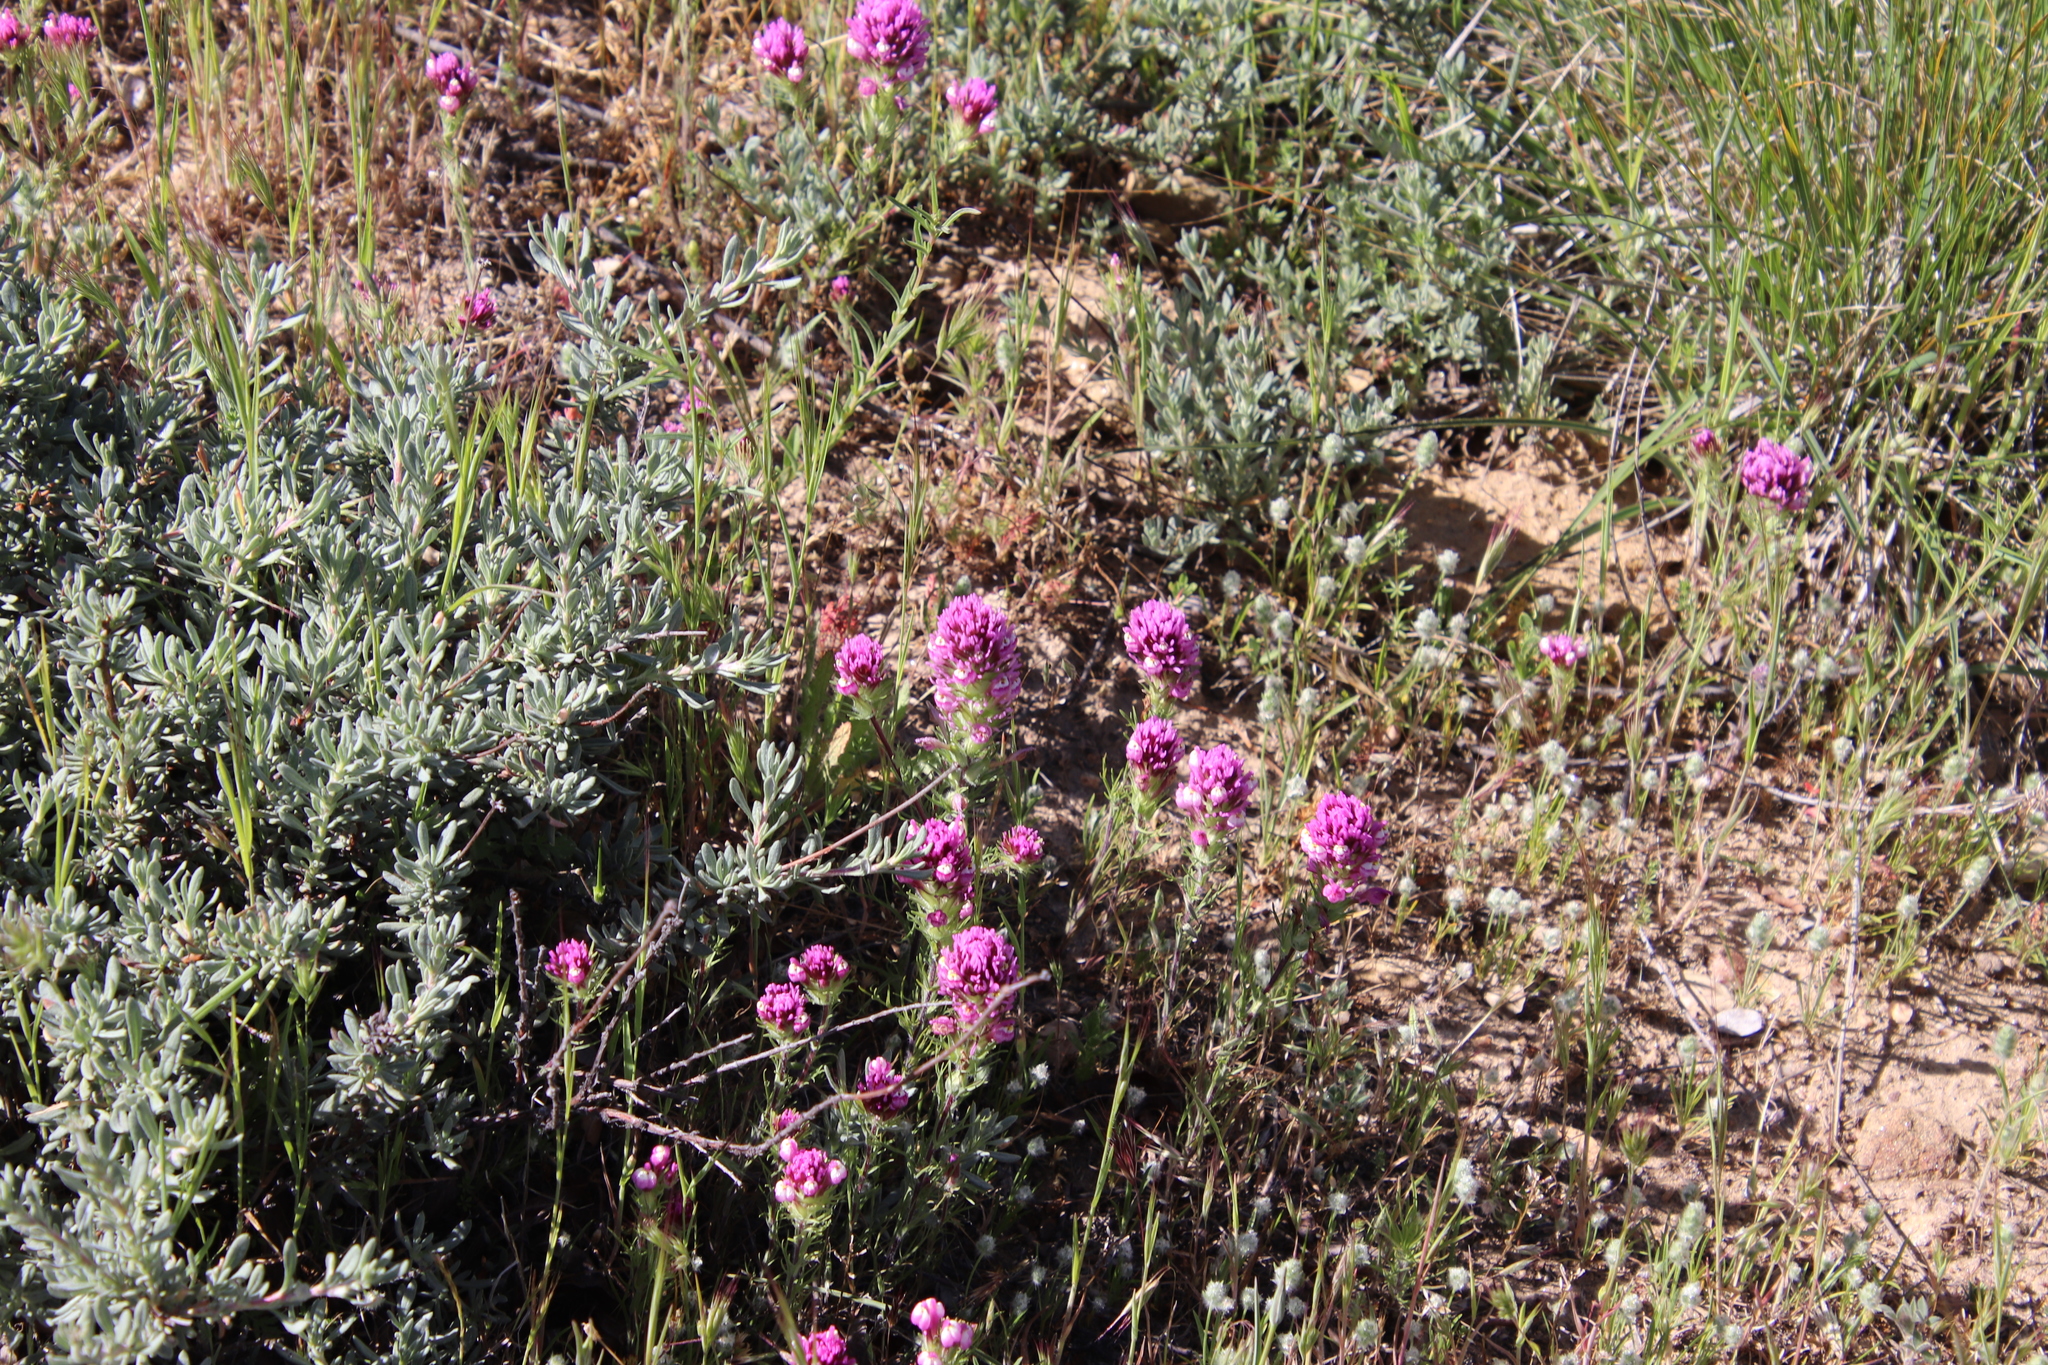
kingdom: Plantae
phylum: Tracheophyta
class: Magnoliopsida
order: Lamiales
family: Orobanchaceae
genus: Castilleja
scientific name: Castilleja exserta
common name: Purple owl-clover
